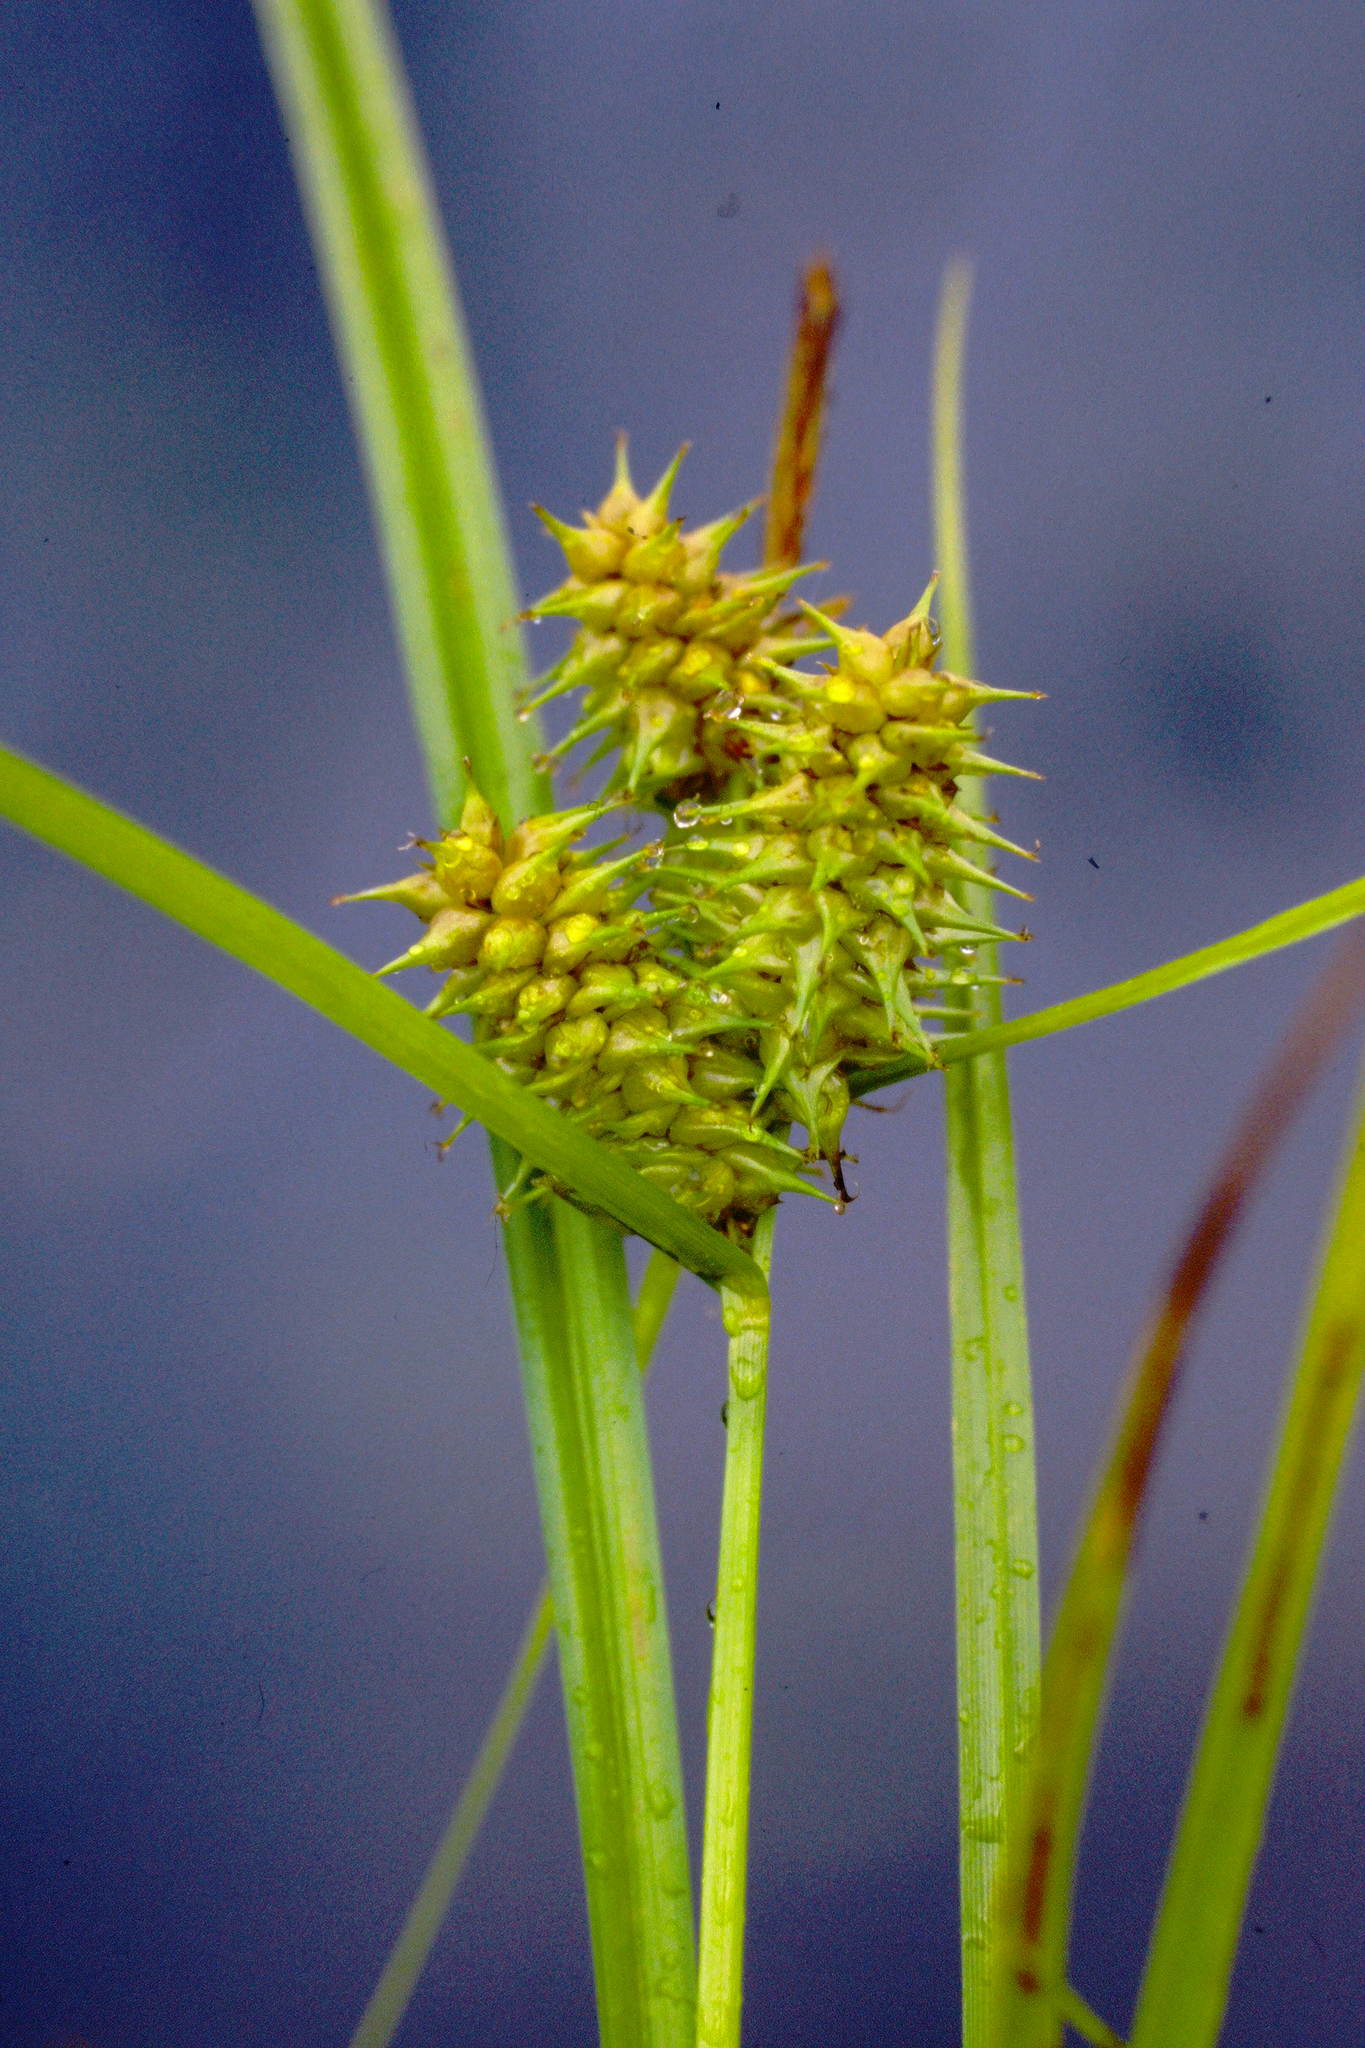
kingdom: Plantae
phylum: Tracheophyta
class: Liliopsida
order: Poales
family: Cyperaceae
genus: Carex
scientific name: Carex flava
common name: Large yellow-sedge
